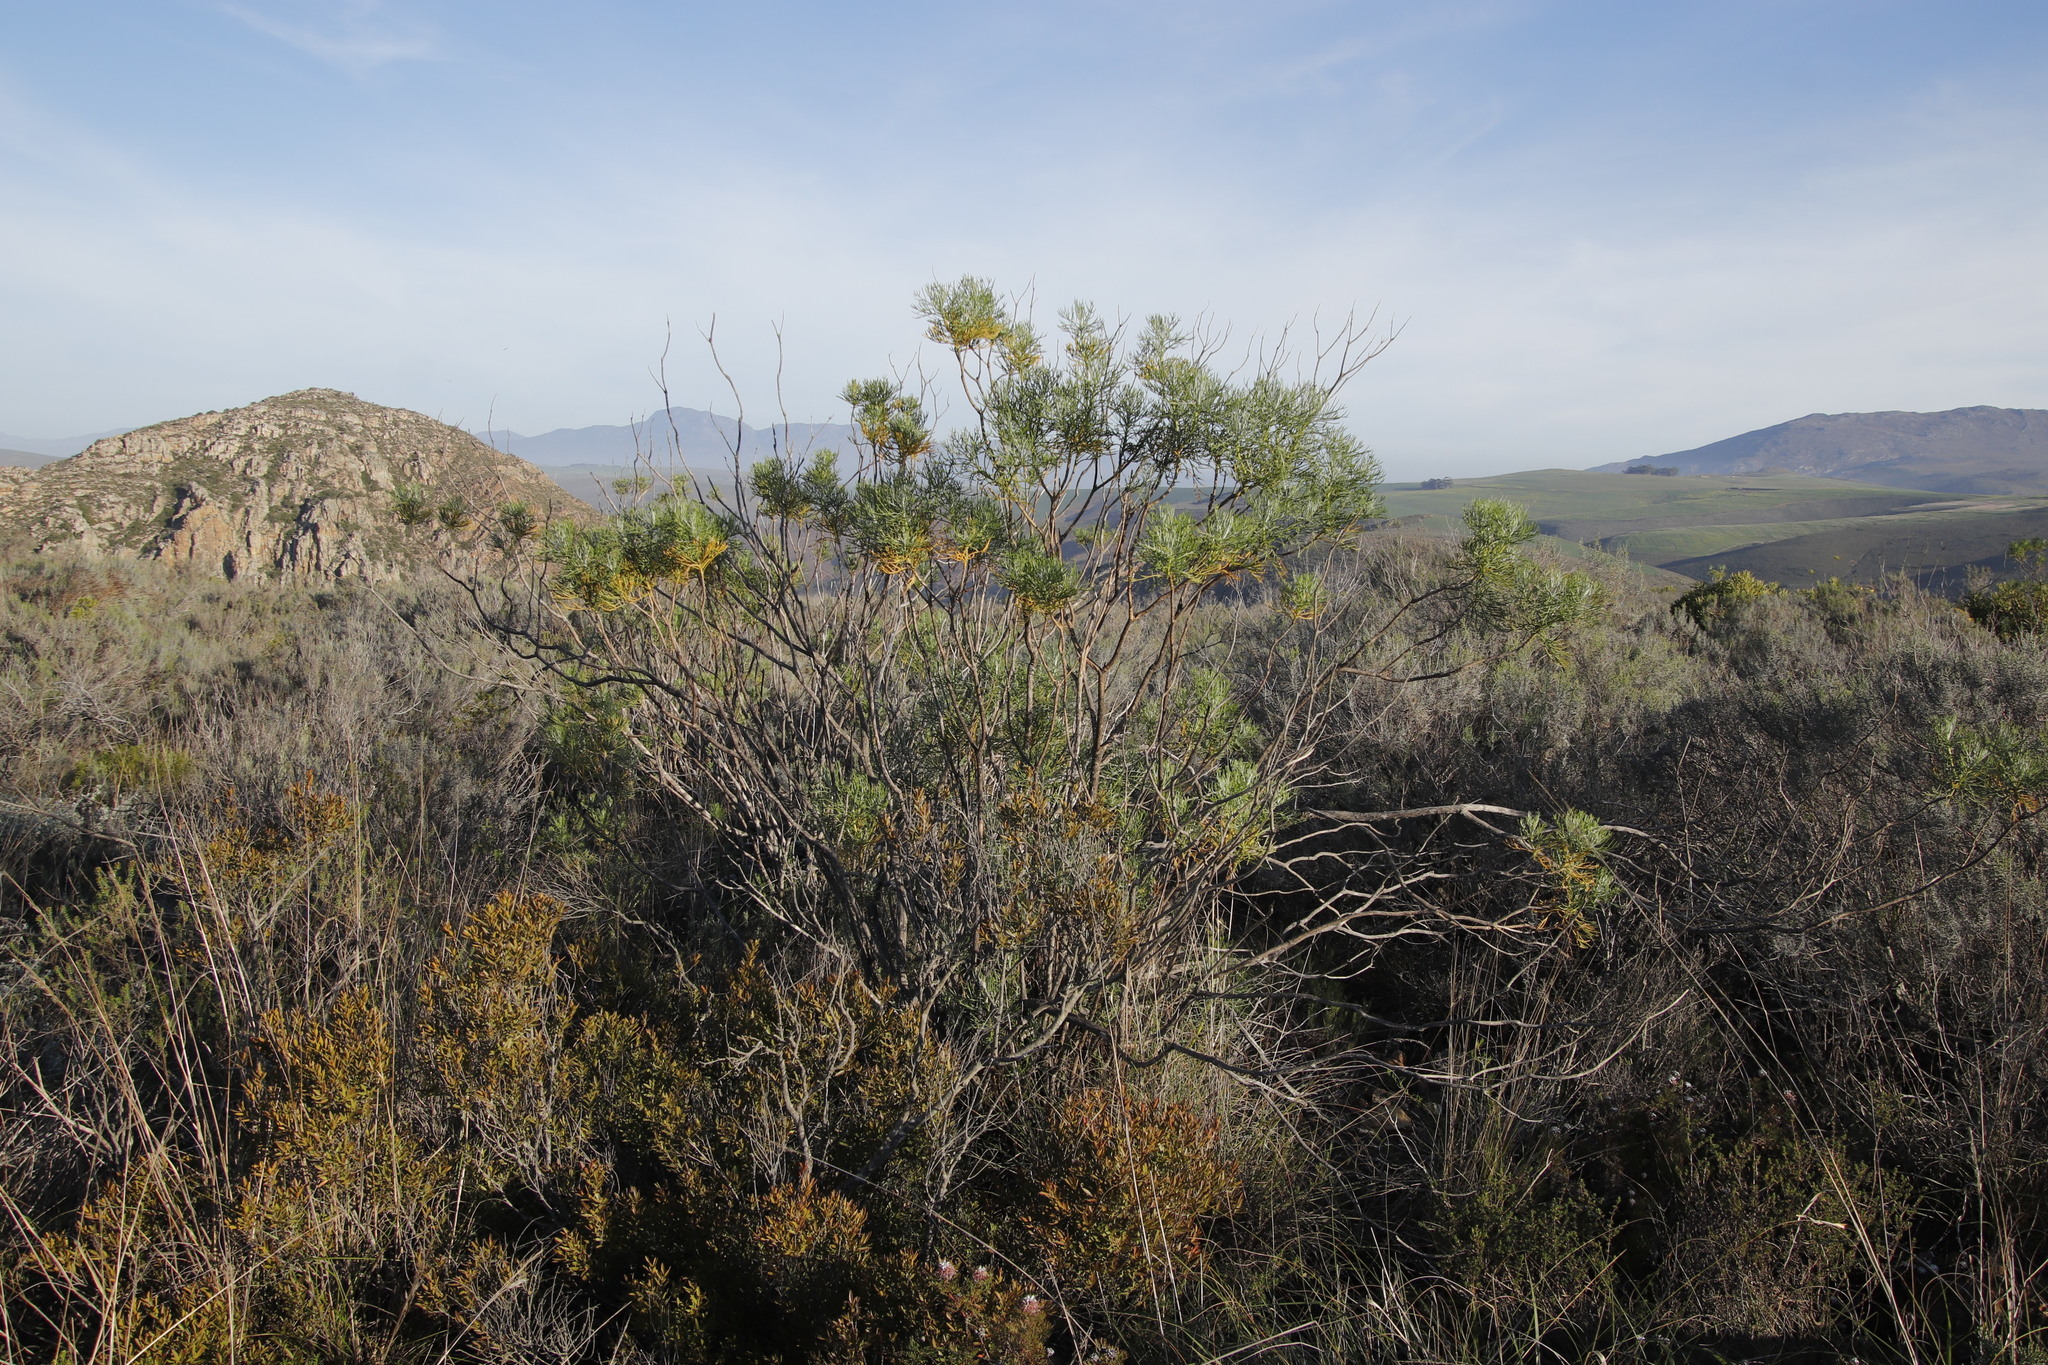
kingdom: Plantae
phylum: Tracheophyta
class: Magnoliopsida
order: Asterales
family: Asteraceae
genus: Hymenolepis
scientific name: Hymenolepis crithmifolia
